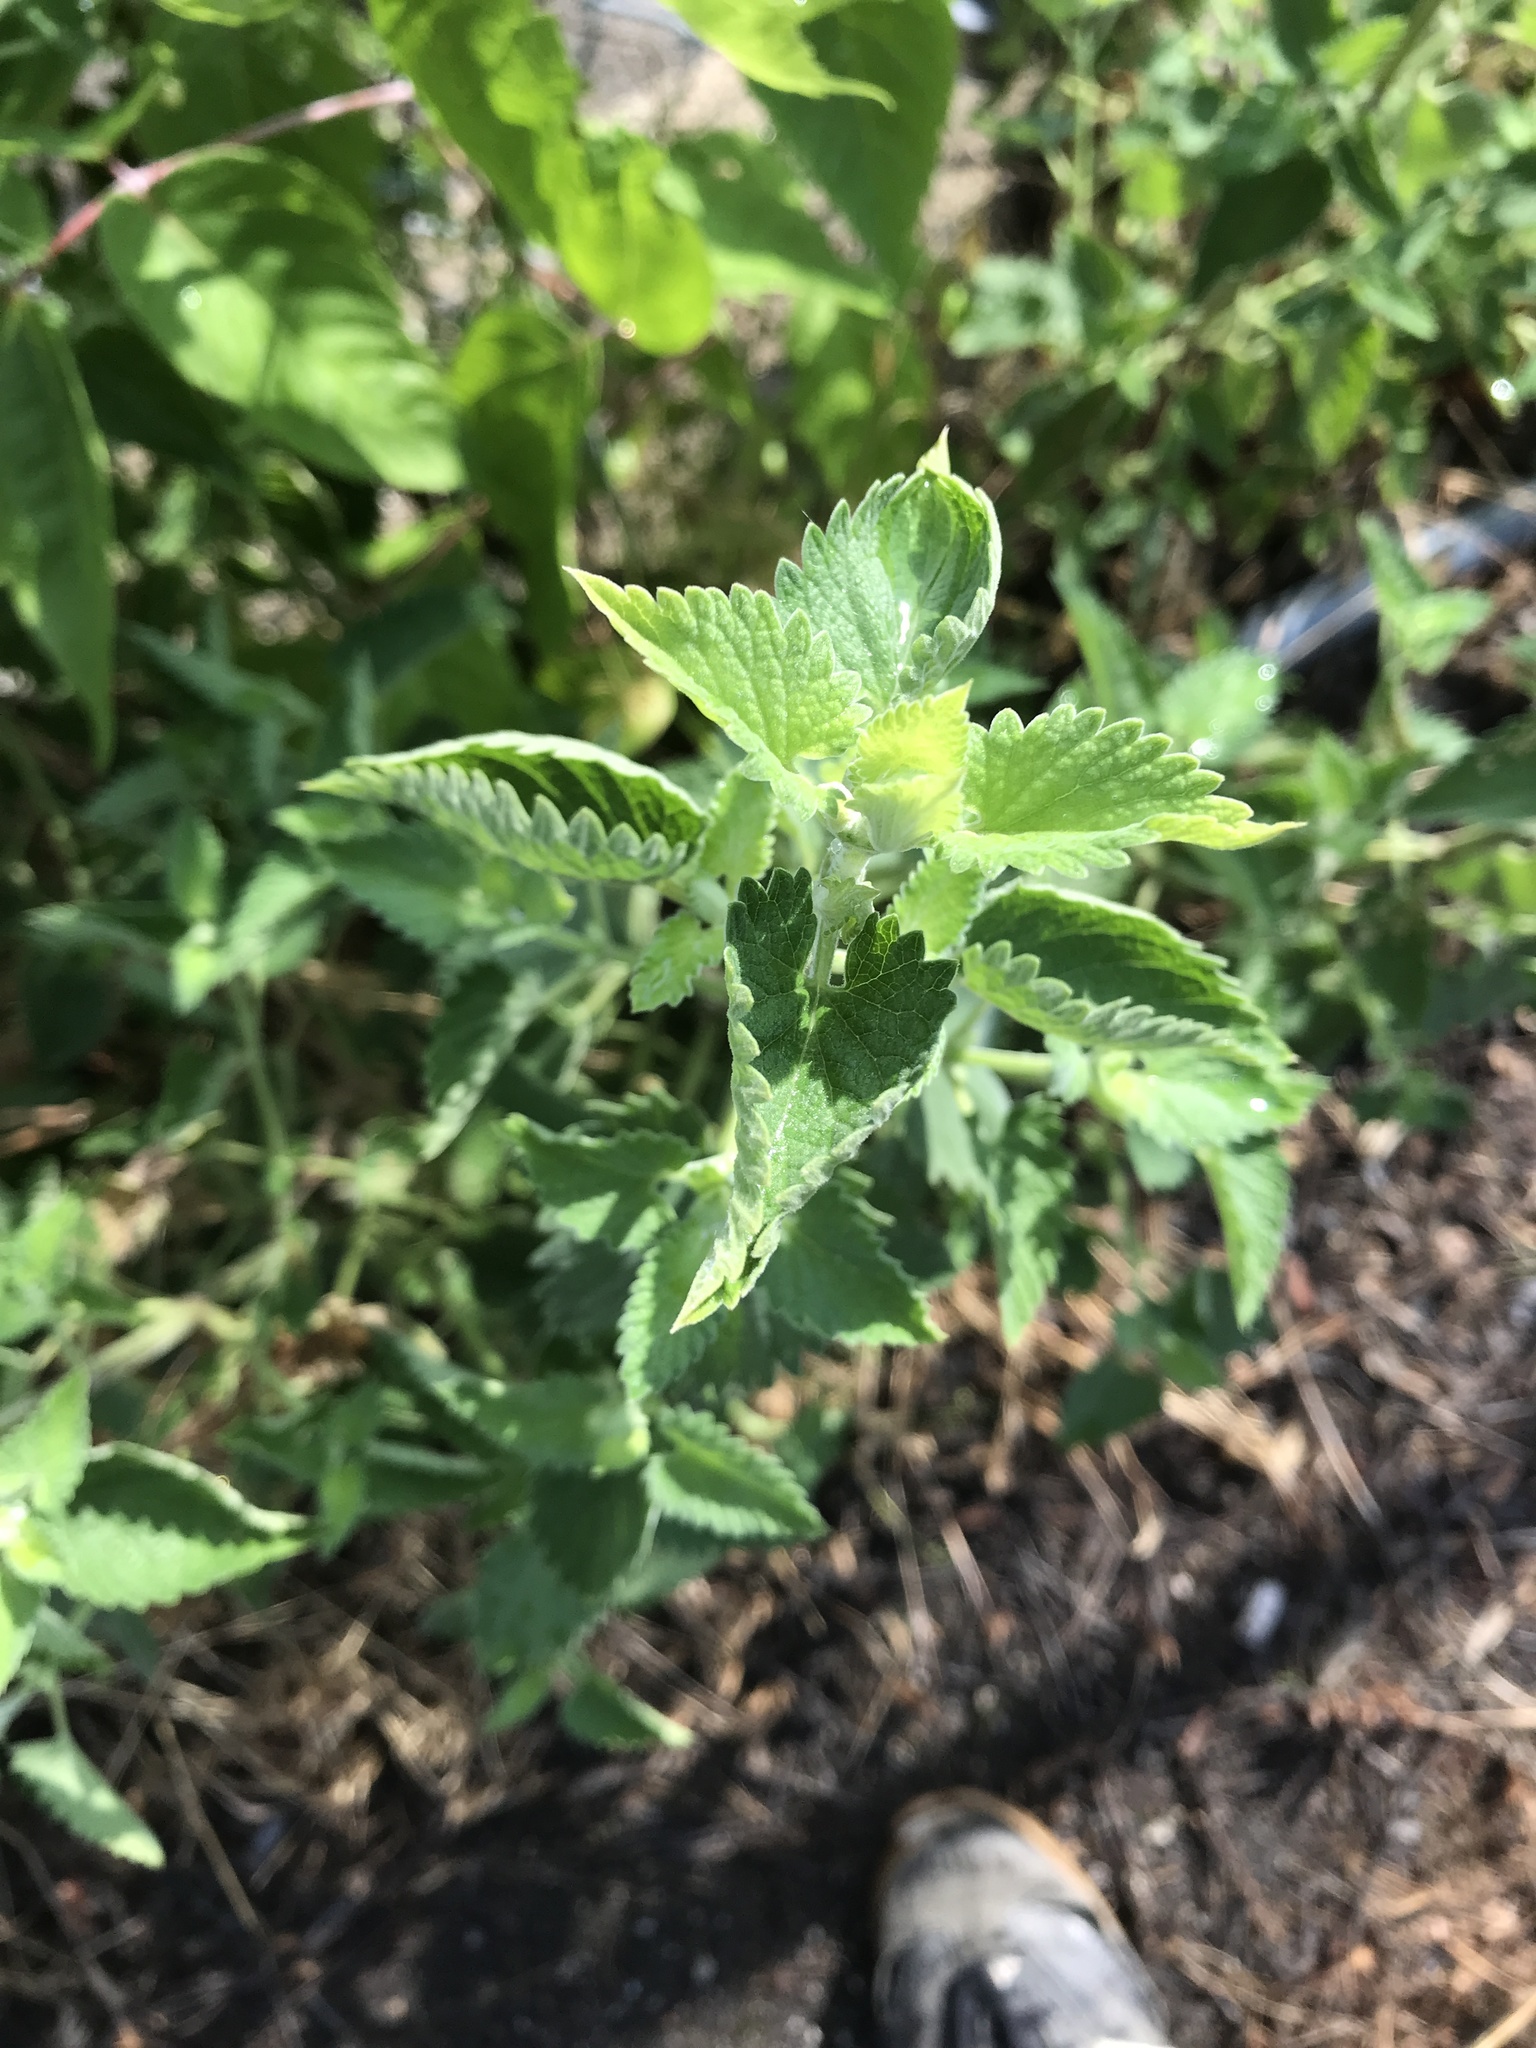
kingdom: Plantae
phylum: Tracheophyta
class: Magnoliopsida
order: Lamiales
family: Lamiaceae
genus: Nepeta
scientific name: Nepeta cataria
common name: Catnip
